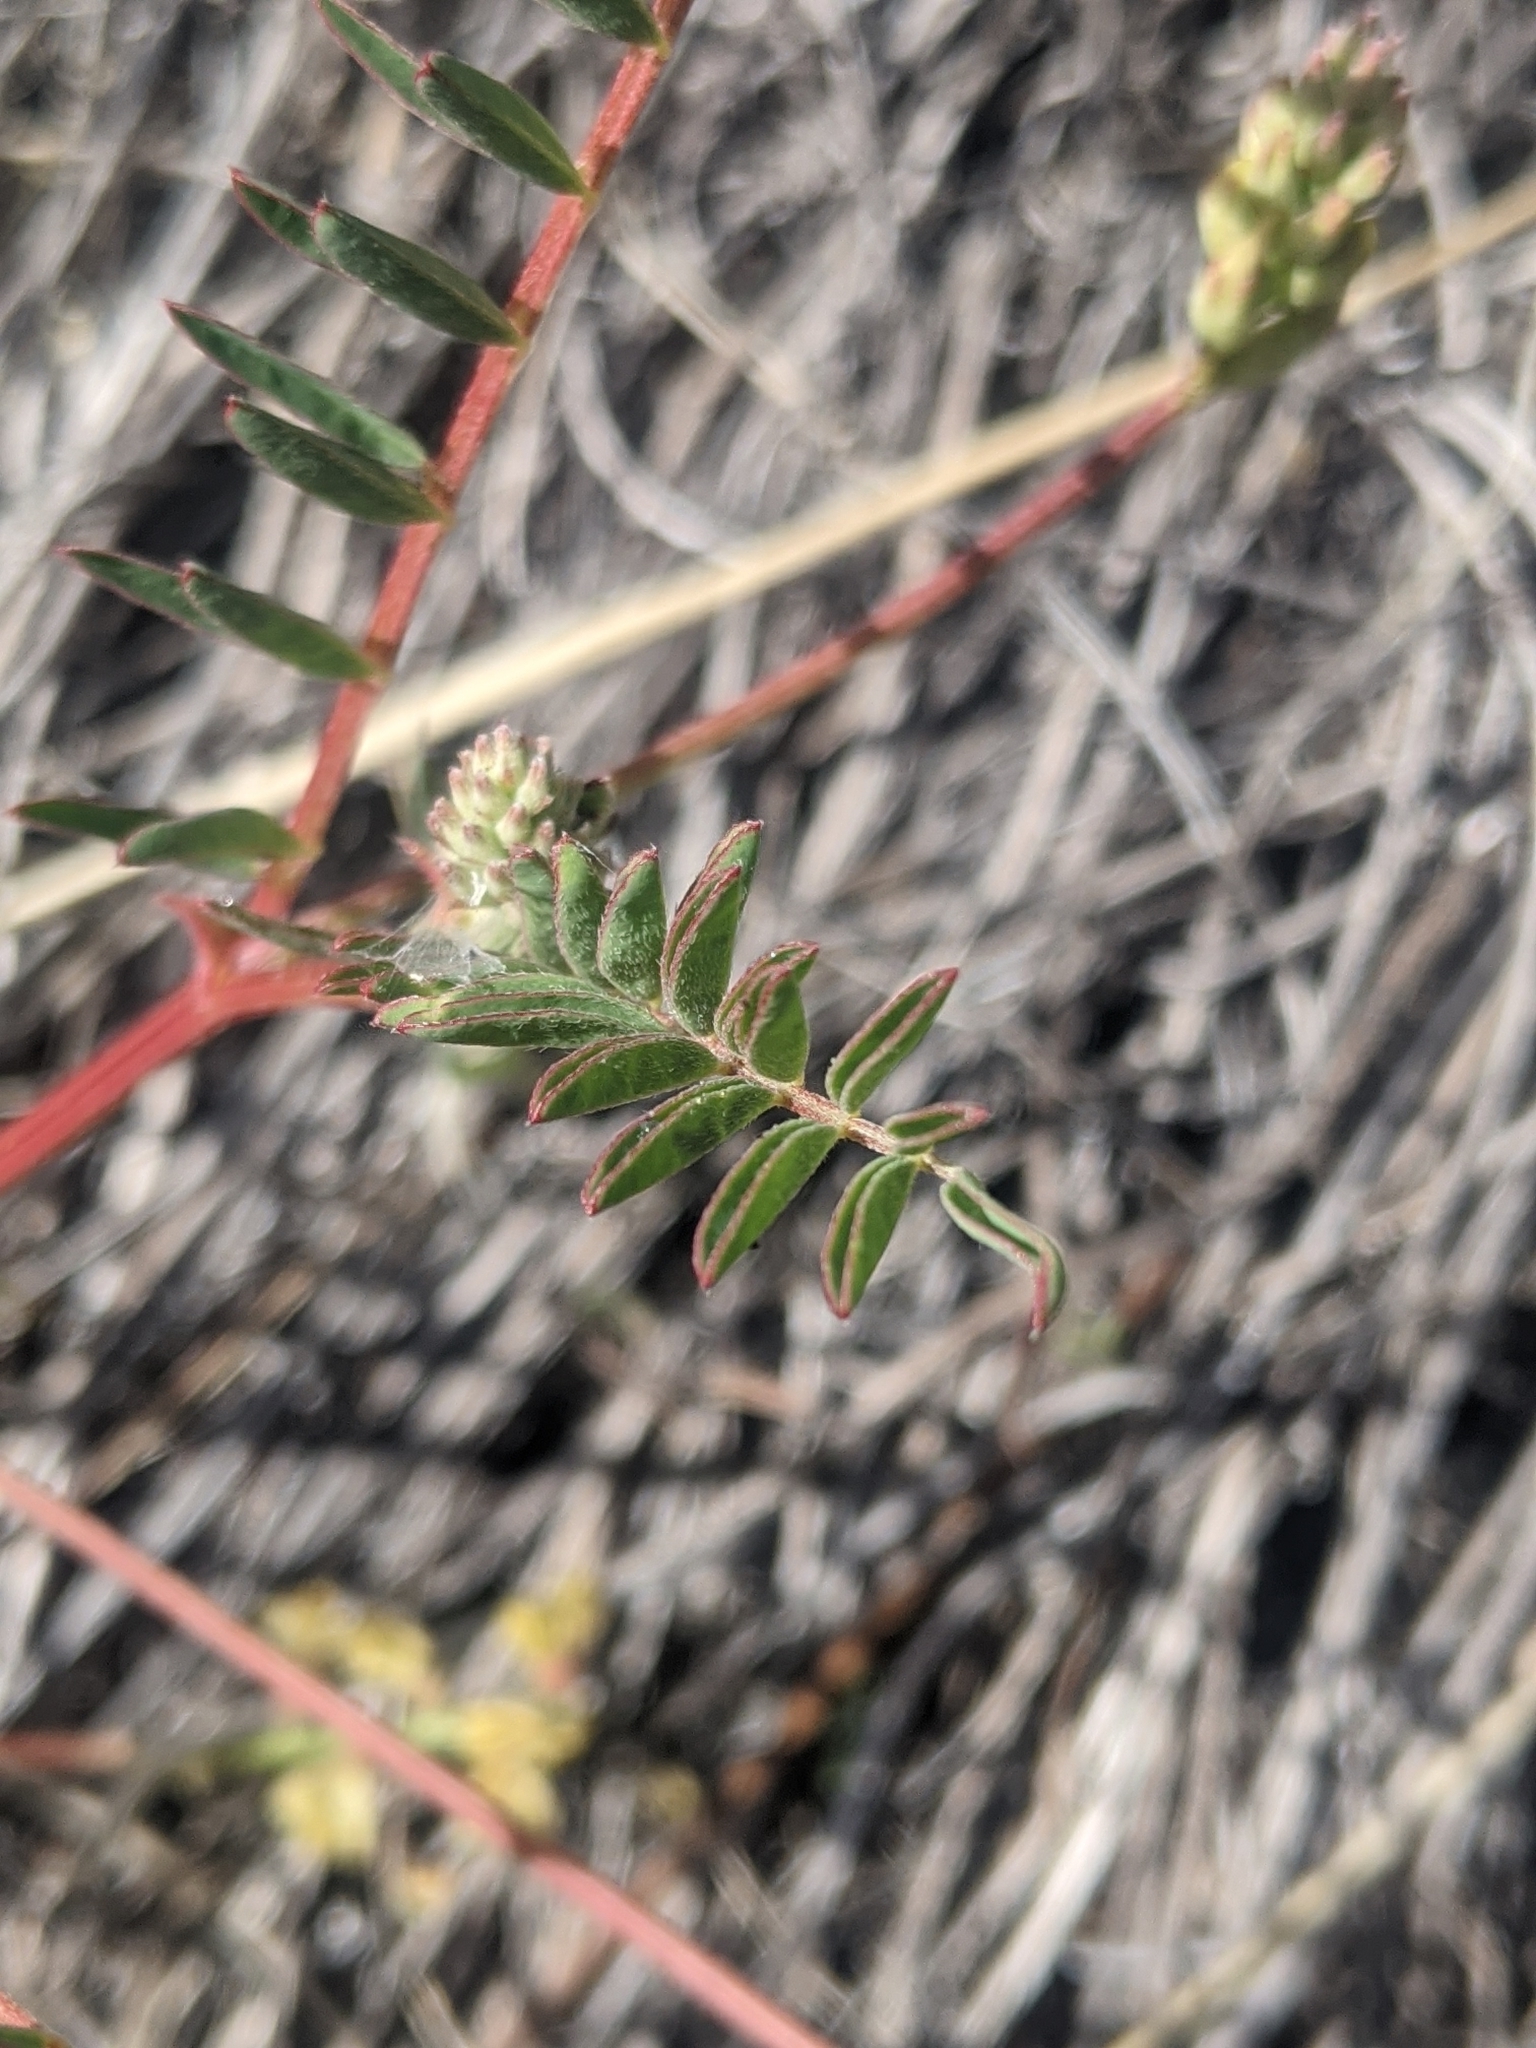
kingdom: Plantae
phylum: Tracheophyta
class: Magnoliopsida
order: Fabales
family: Fabaceae
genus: Astragalus
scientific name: Astragalus douglasii
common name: Jacumba milkvetch
